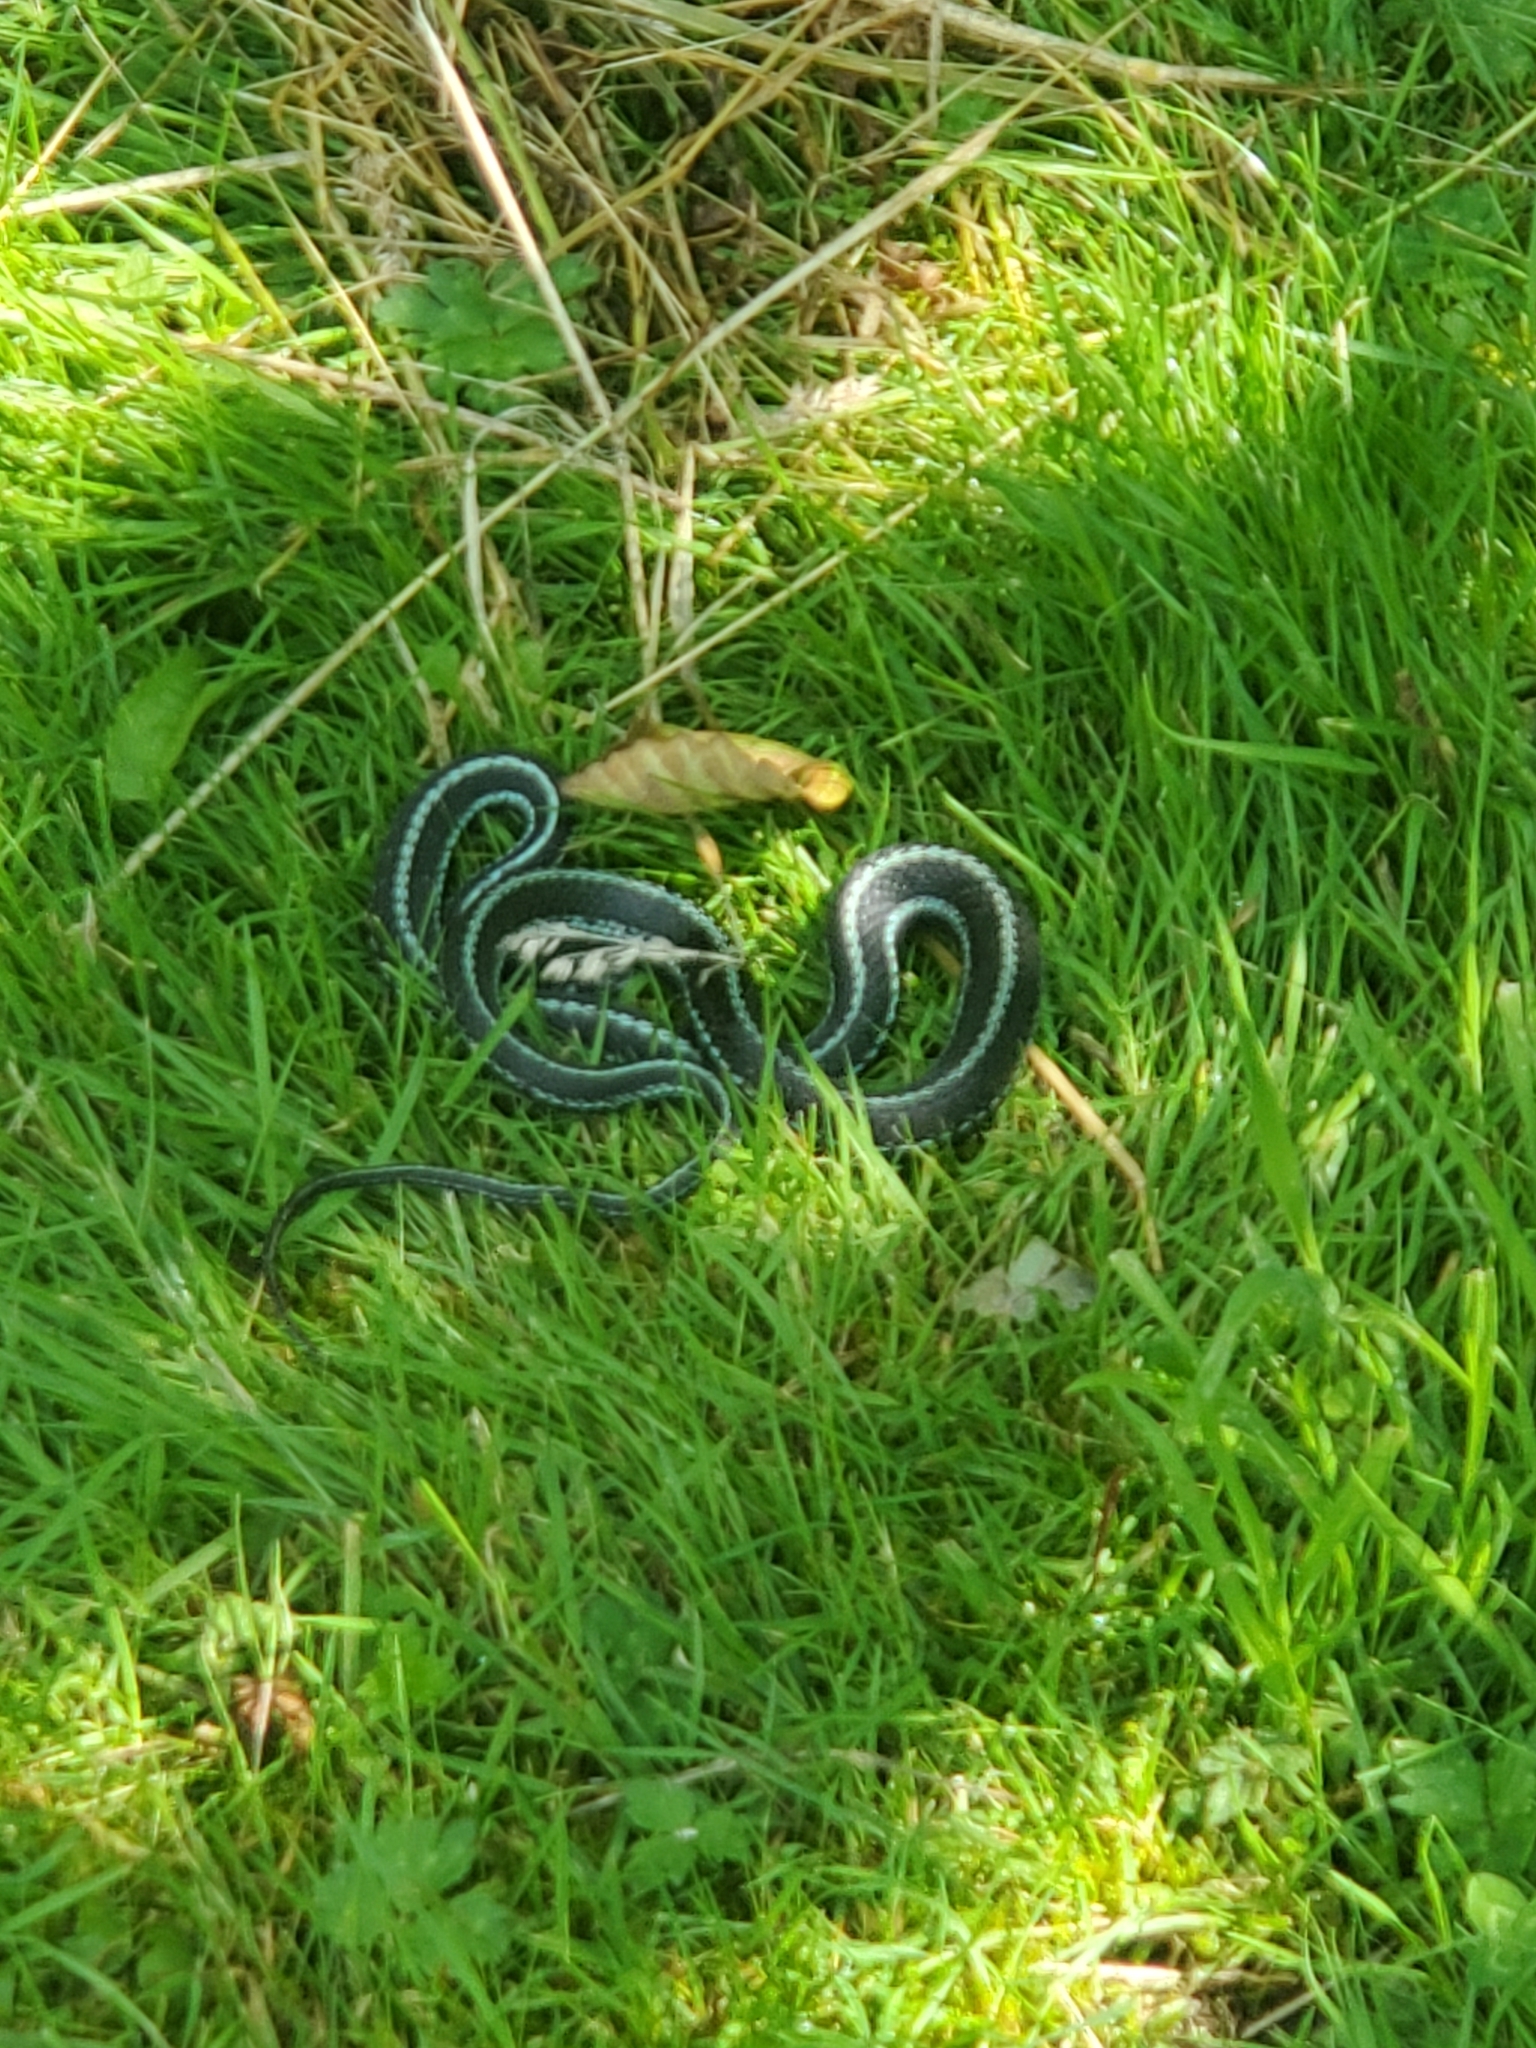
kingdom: Animalia
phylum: Chordata
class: Squamata
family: Colubridae
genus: Thamnophis
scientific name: Thamnophis sirtalis
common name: Common garter snake
